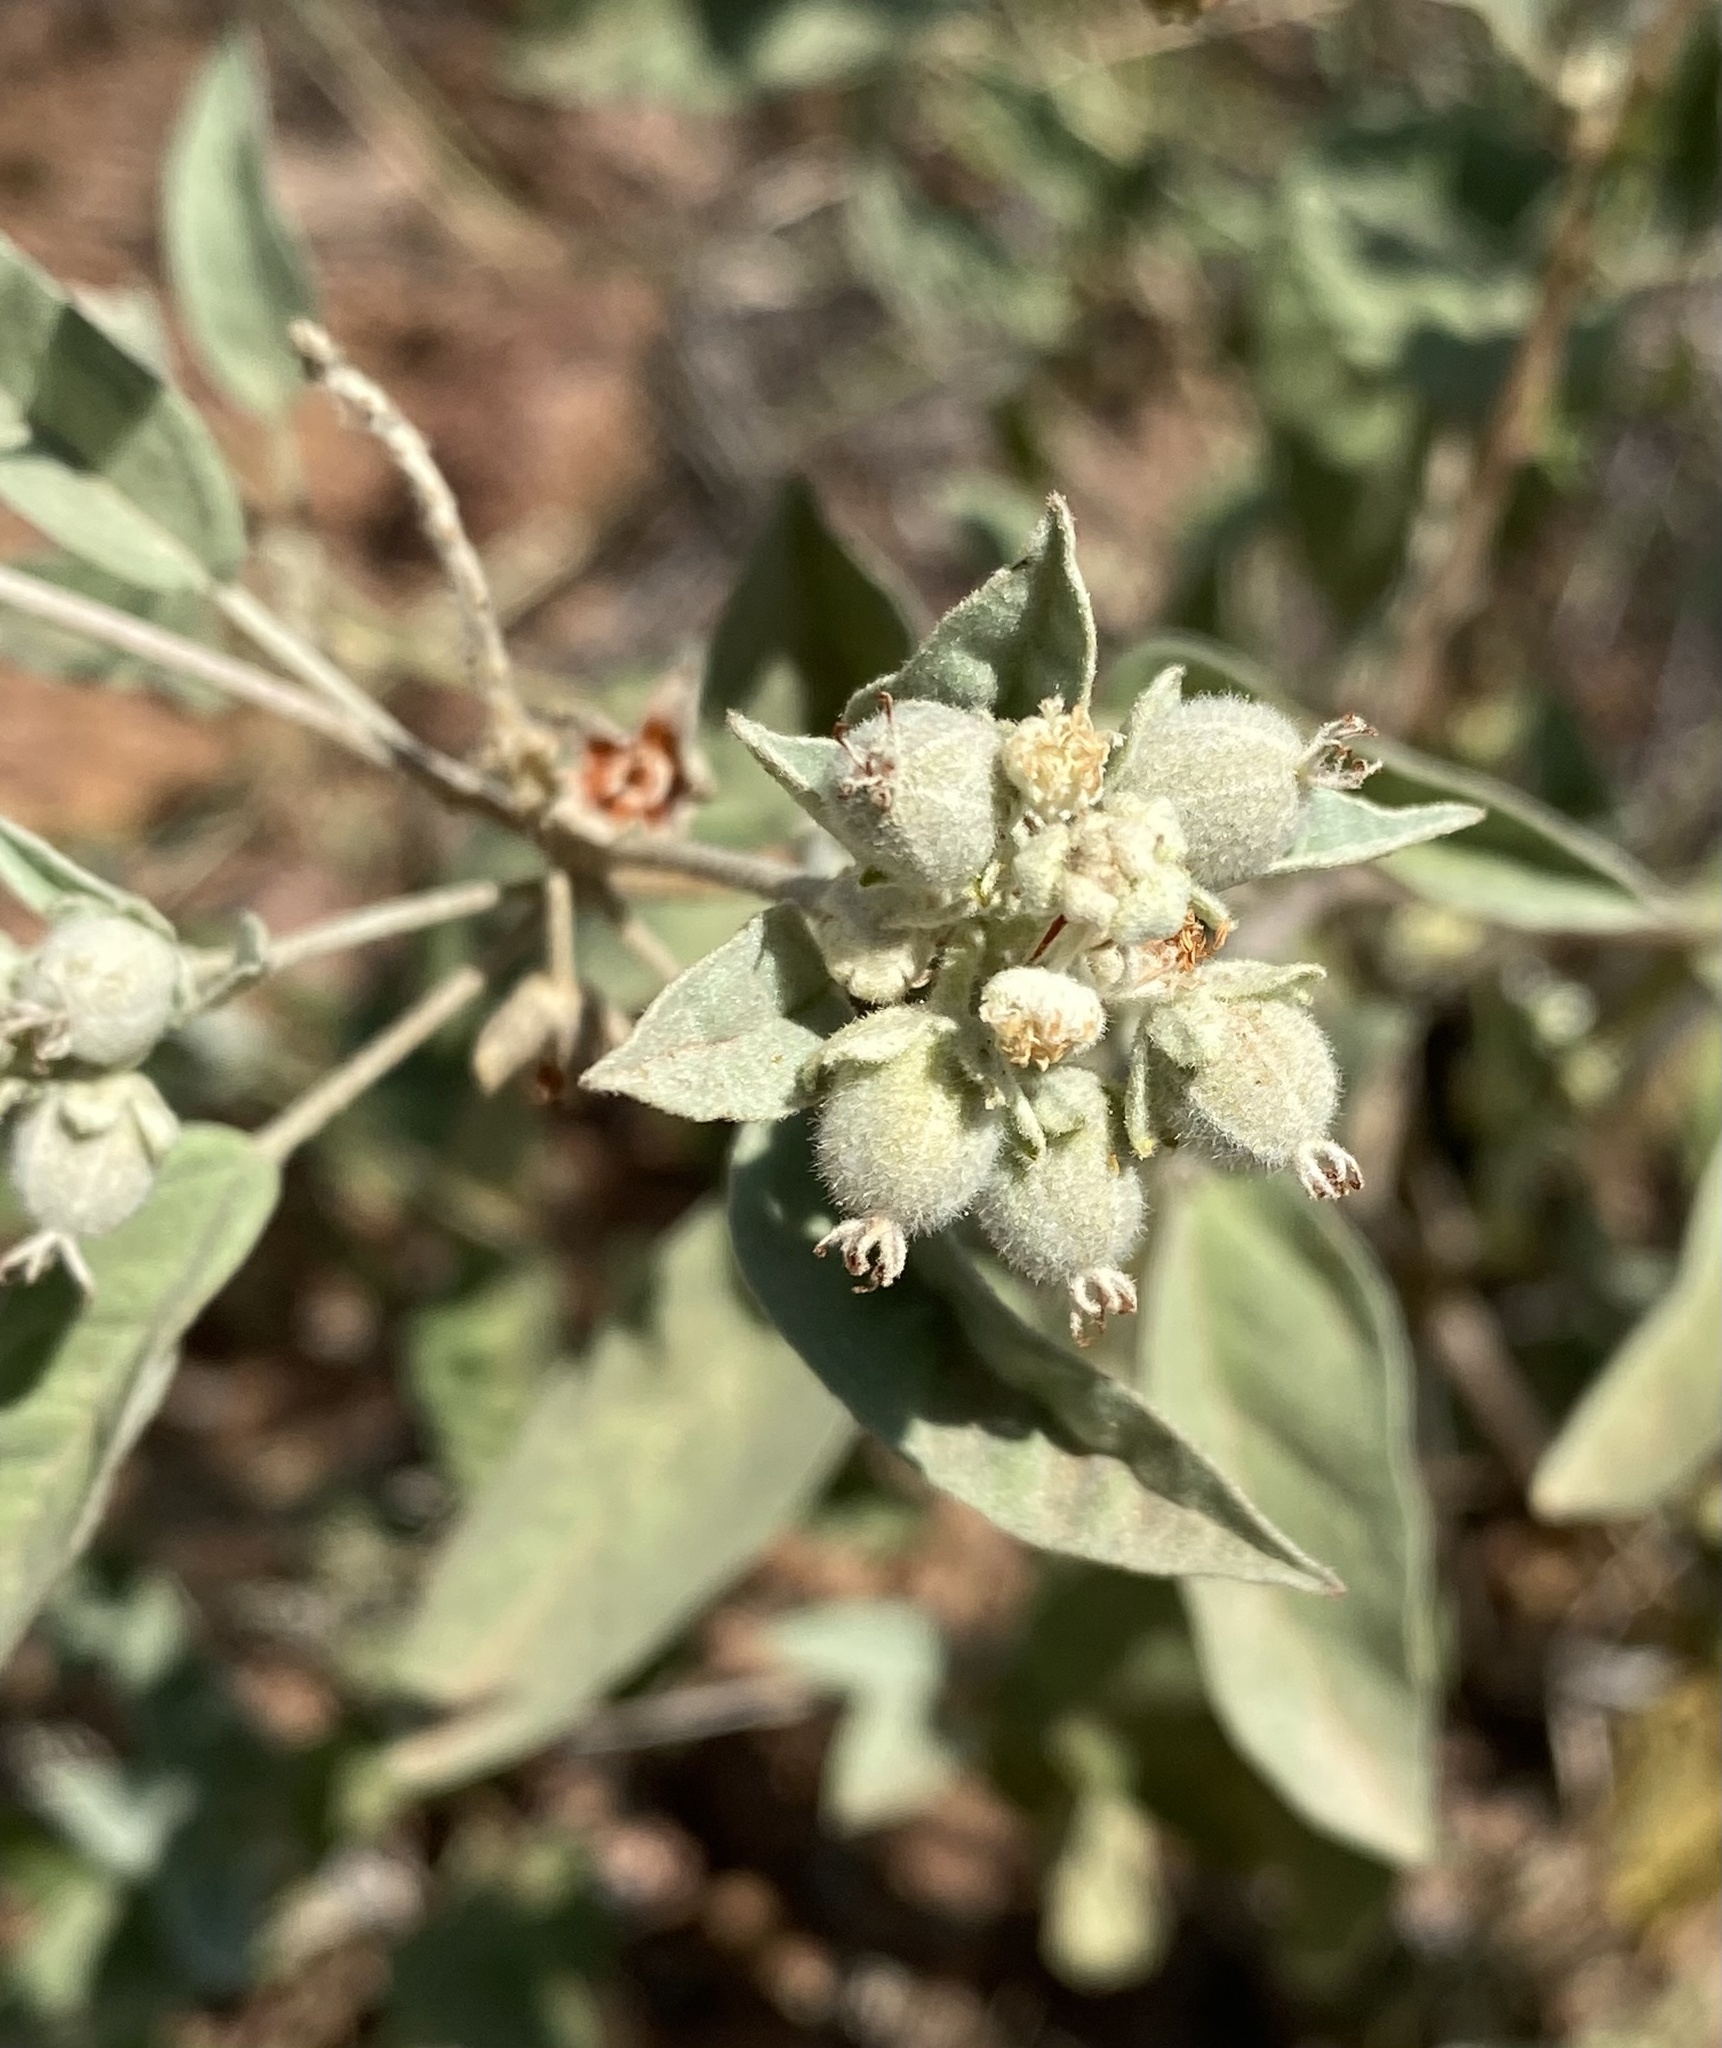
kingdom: Plantae
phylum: Tracheophyta
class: Magnoliopsida
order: Malpighiales
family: Euphorbiaceae
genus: Croton
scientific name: Croton pottsii
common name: Leatherweed
